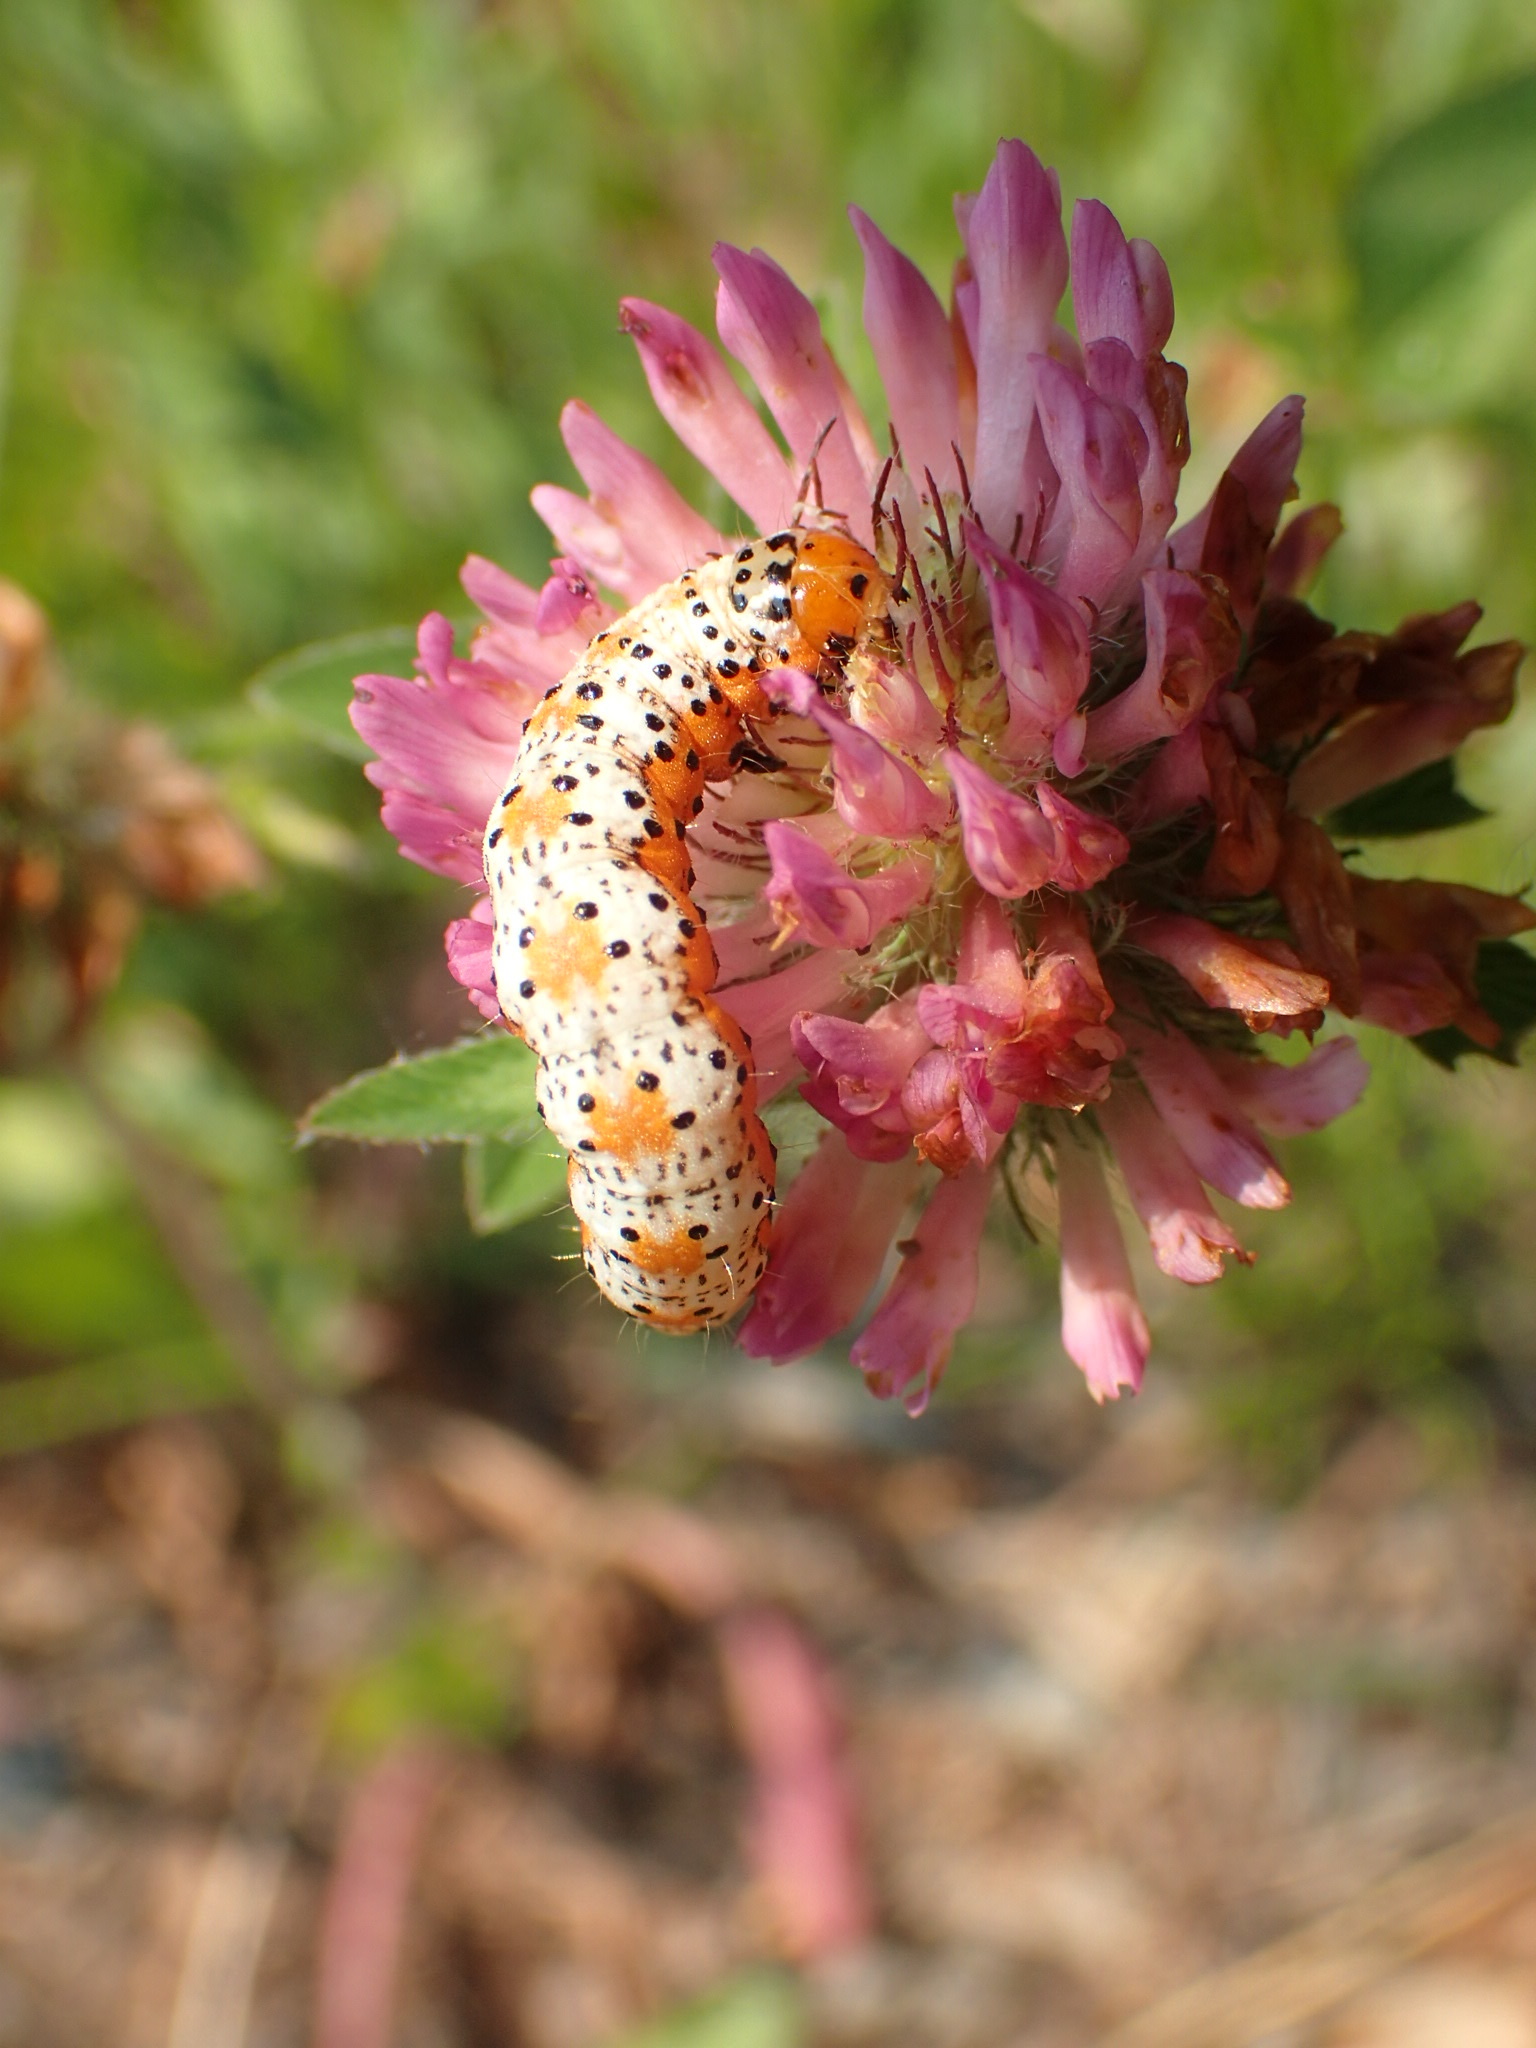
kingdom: Animalia
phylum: Arthropoda
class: Insecta
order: Lepidoptera
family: Noctuidae
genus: Pyrrhia
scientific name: Pyrrhia exprimens
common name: Purple-lined sallow
